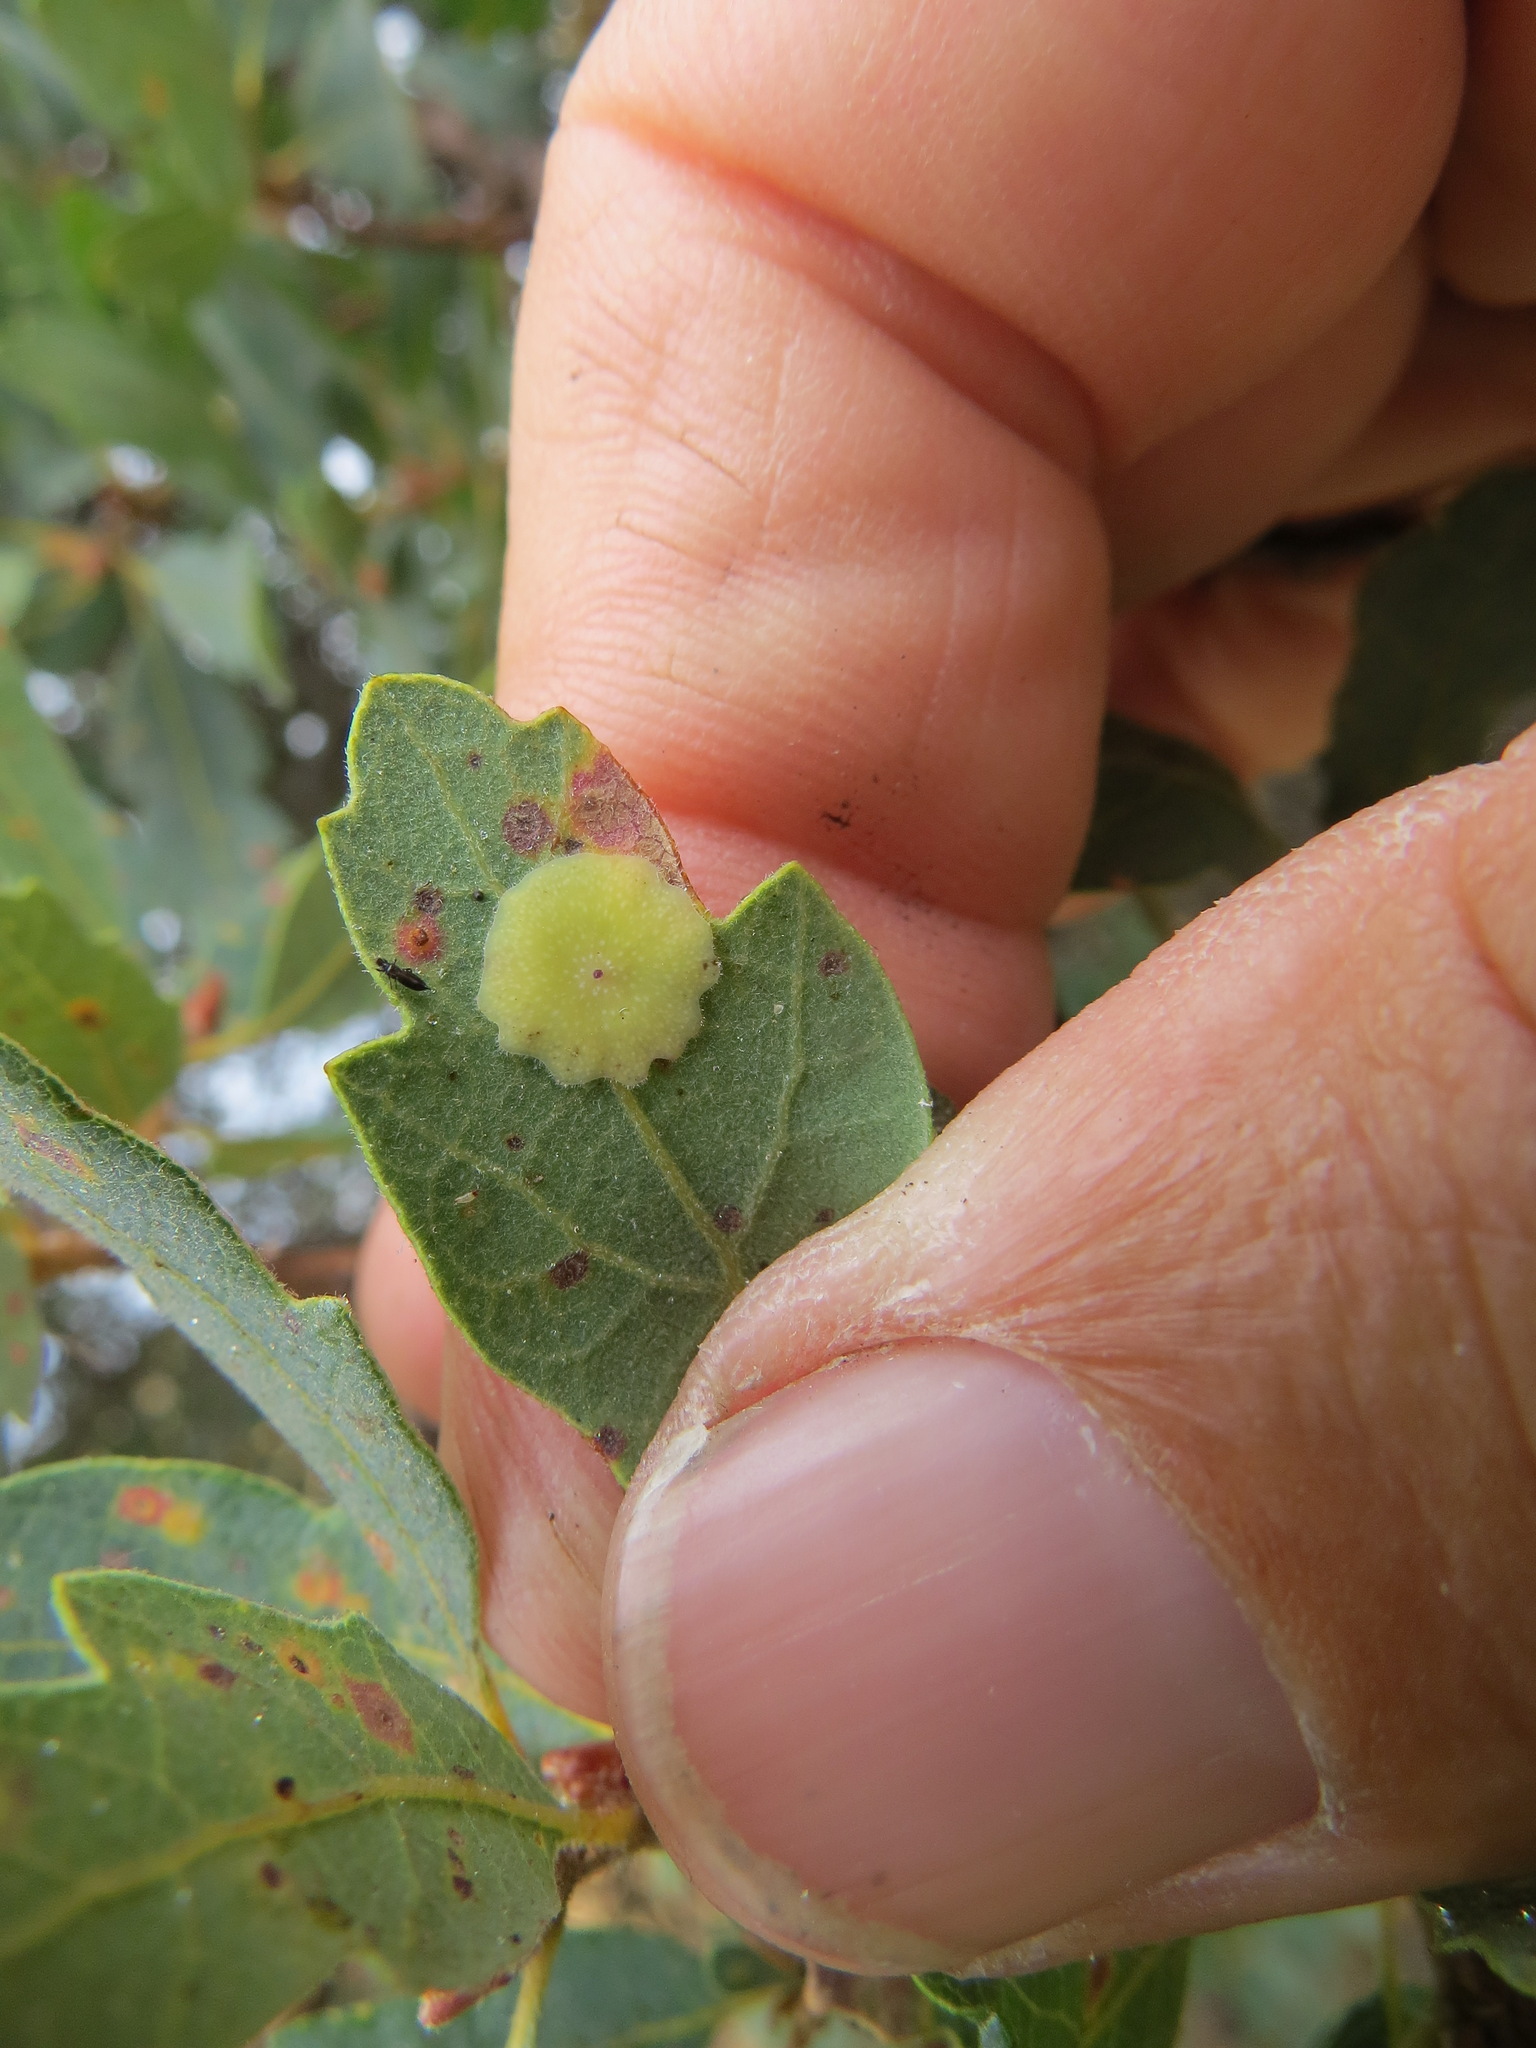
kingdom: Animalia
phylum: Arthropoda
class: Insecta
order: Hymenoptera
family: Cynipidae
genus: Andricus
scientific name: Andricus
